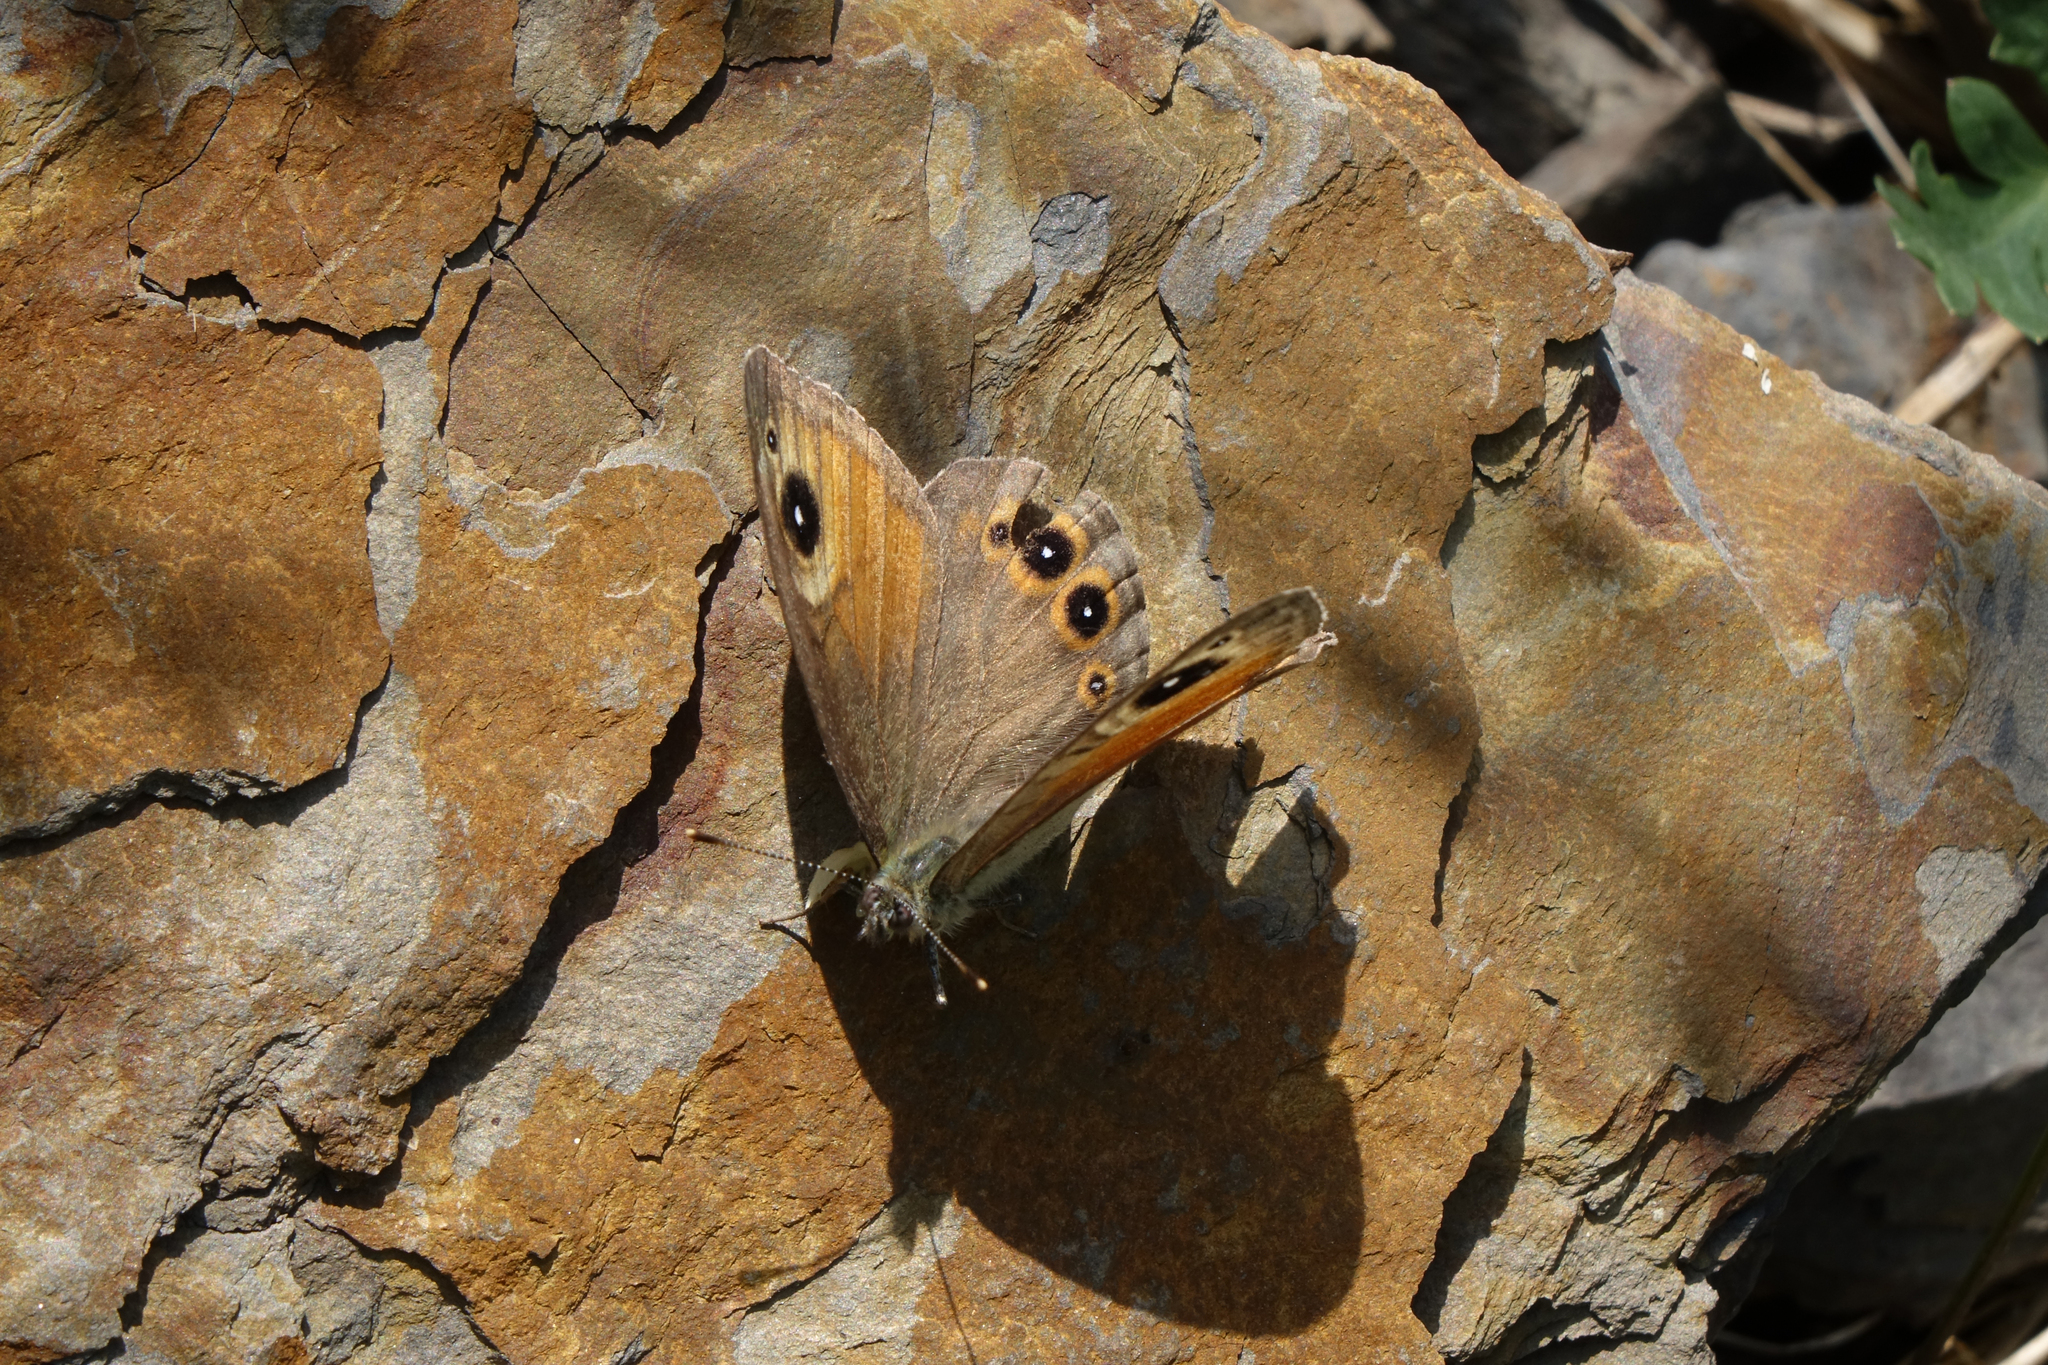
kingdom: Animalia
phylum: Arthropoda
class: Insecta
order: Lepidoptera
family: Nymphalidae
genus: Pararge
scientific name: Pararge Lasiommata maera
